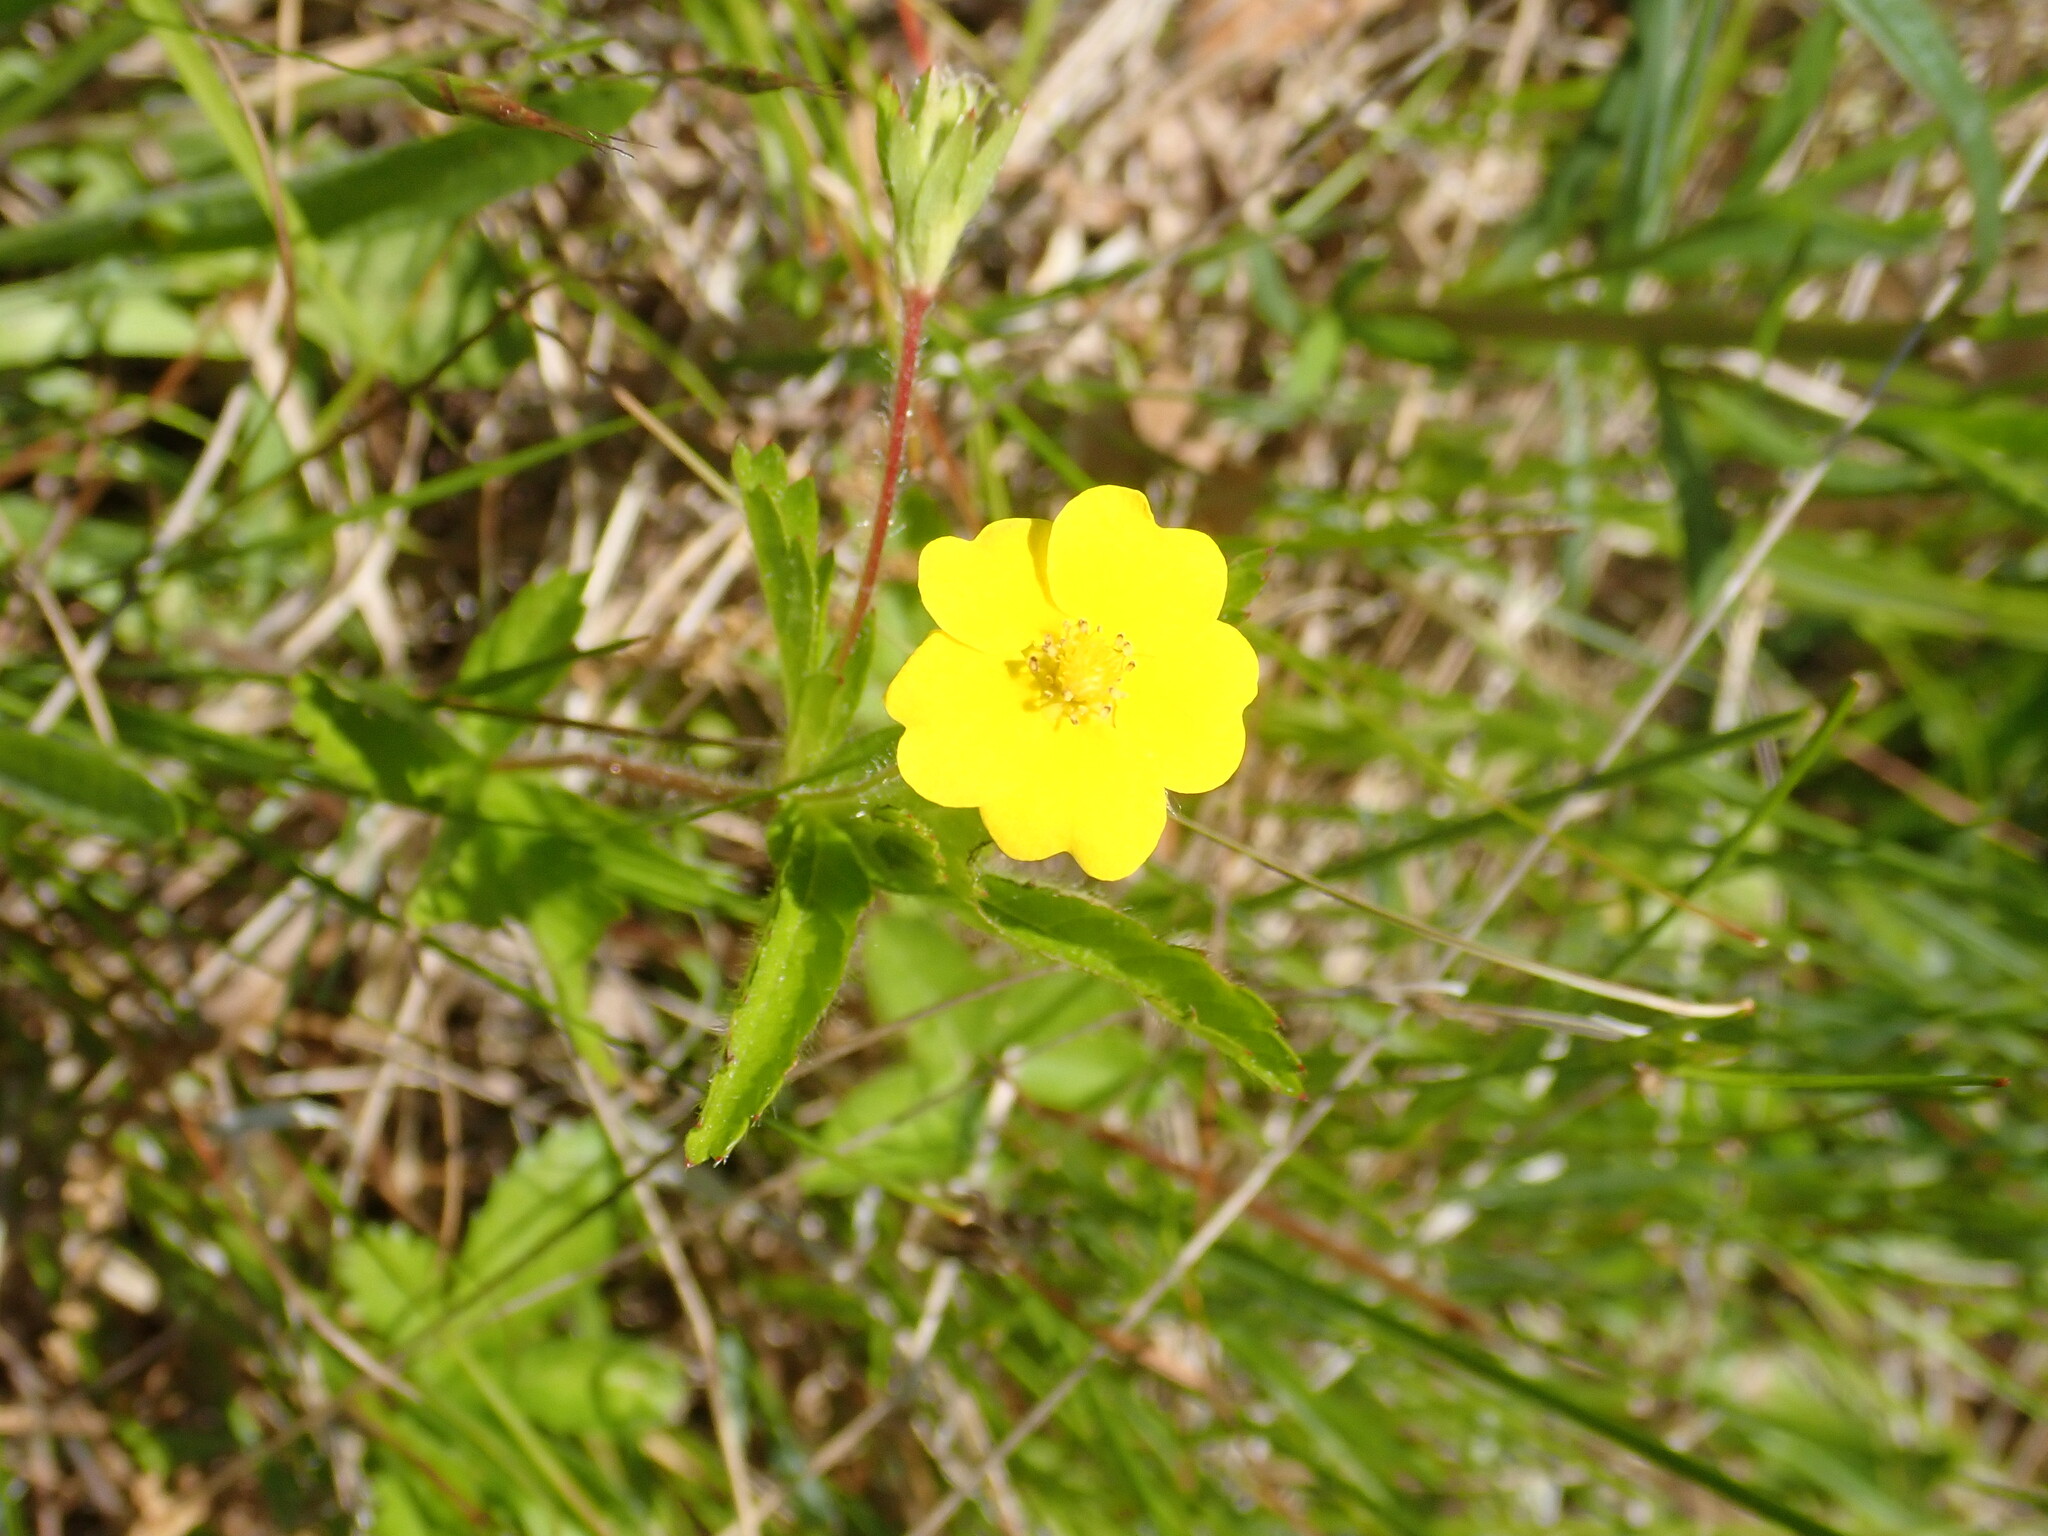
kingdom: Plantae
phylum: Tracheophyta
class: Magnoliopsida
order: Rosales
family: Rosaceae
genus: Potentilla
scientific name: Potentilla simplex
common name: Old field cinquefoil
